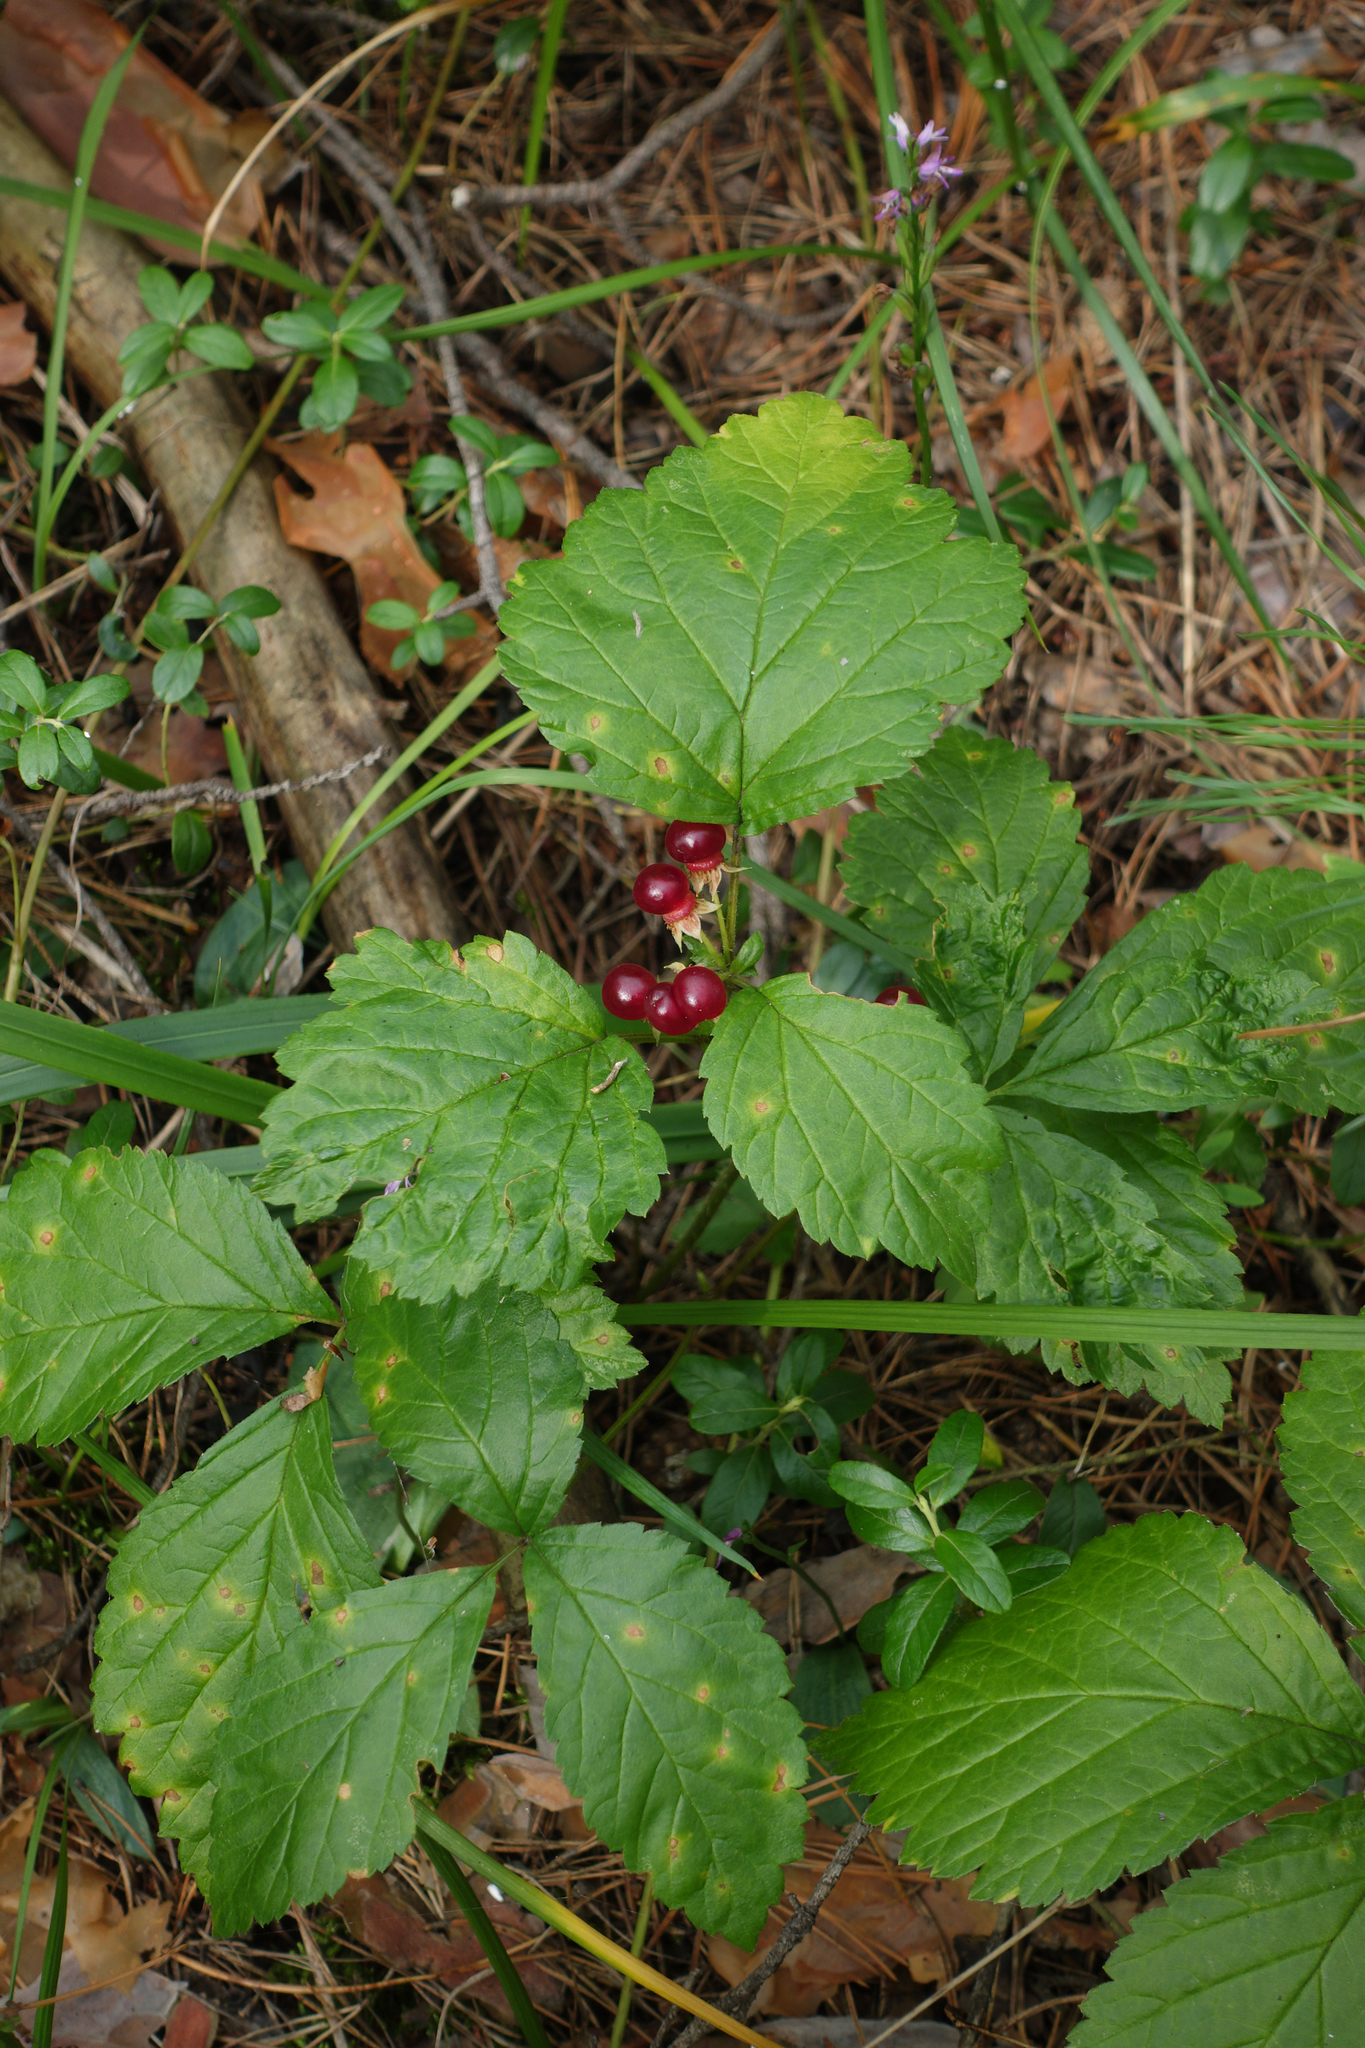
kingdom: Plantae
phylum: Tracheophyta
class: Magnoliopsida
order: Rosales
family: Rosaceae
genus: Rubus
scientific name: Rubus saxatilis
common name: Stone bramble
